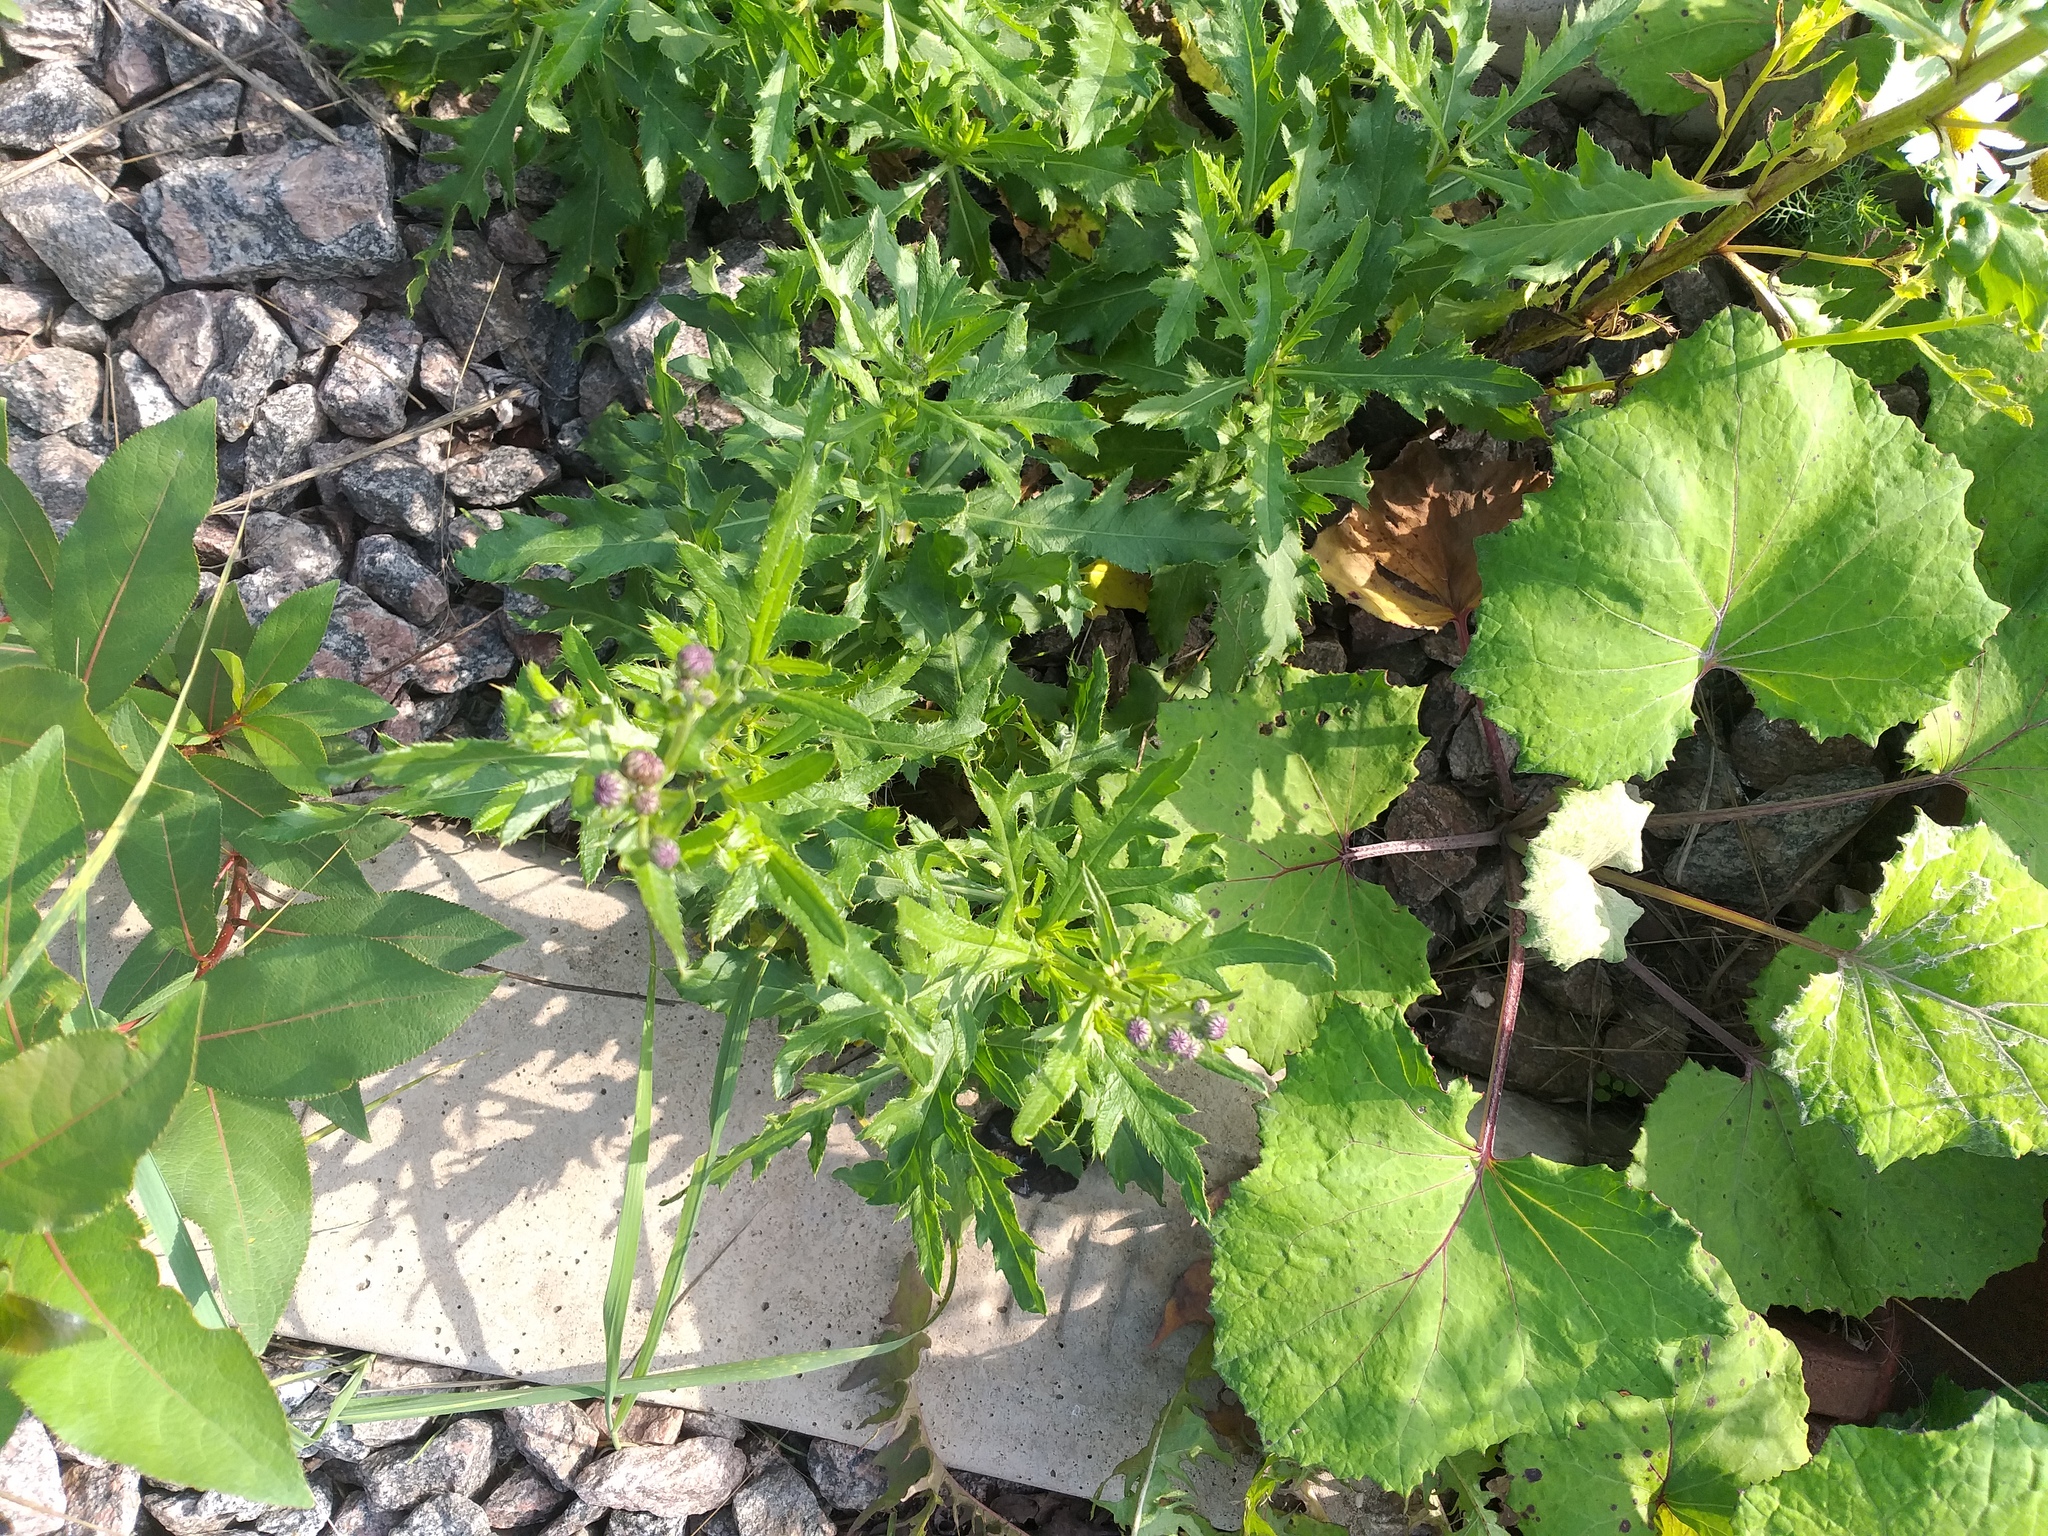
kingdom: Plantae
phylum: Tracheophyta
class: Magnoliopsida
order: Asterales
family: Asteraceae
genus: Cirsium
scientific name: Cirsium arvense
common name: Creeping thistle
